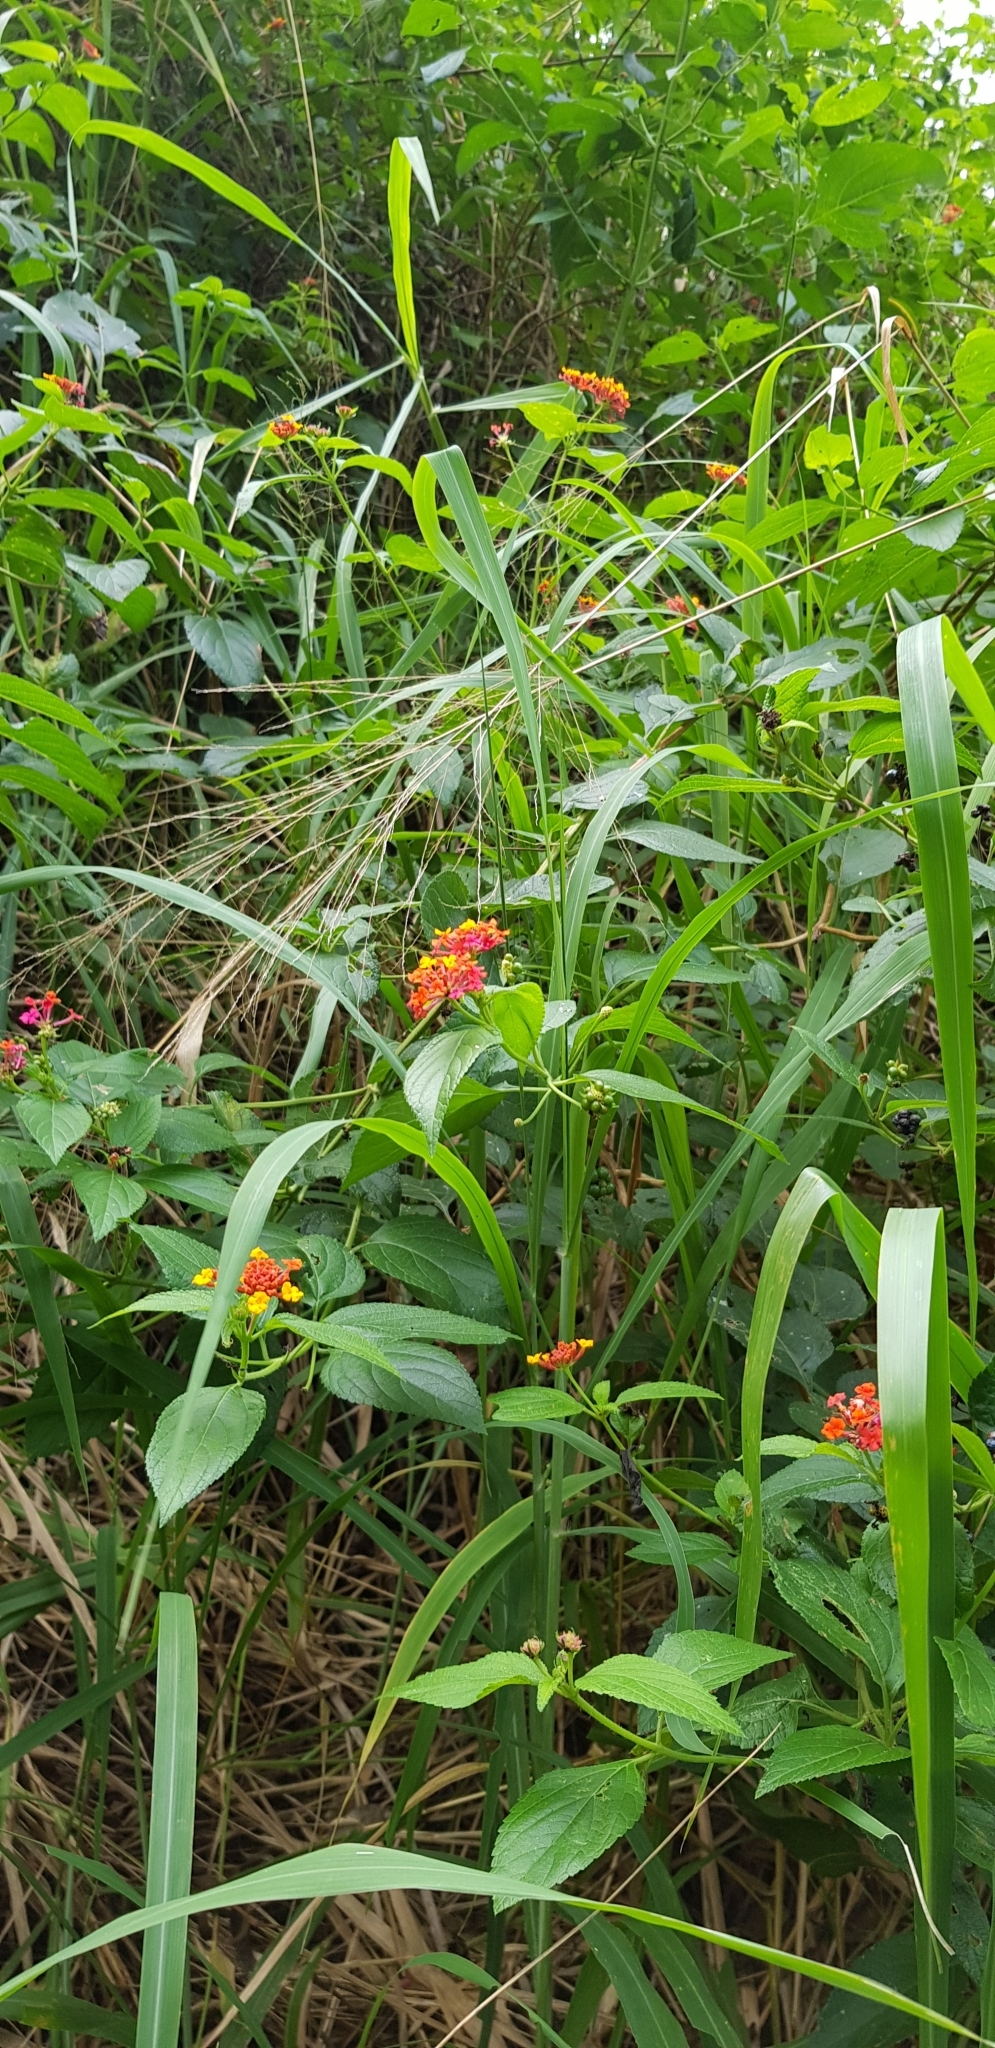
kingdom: Plantae
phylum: Tracheophyta
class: Magnoliopsida
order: Lamiales
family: Verbenaceae
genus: Lantana
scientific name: Lantana camara
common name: Lantana
